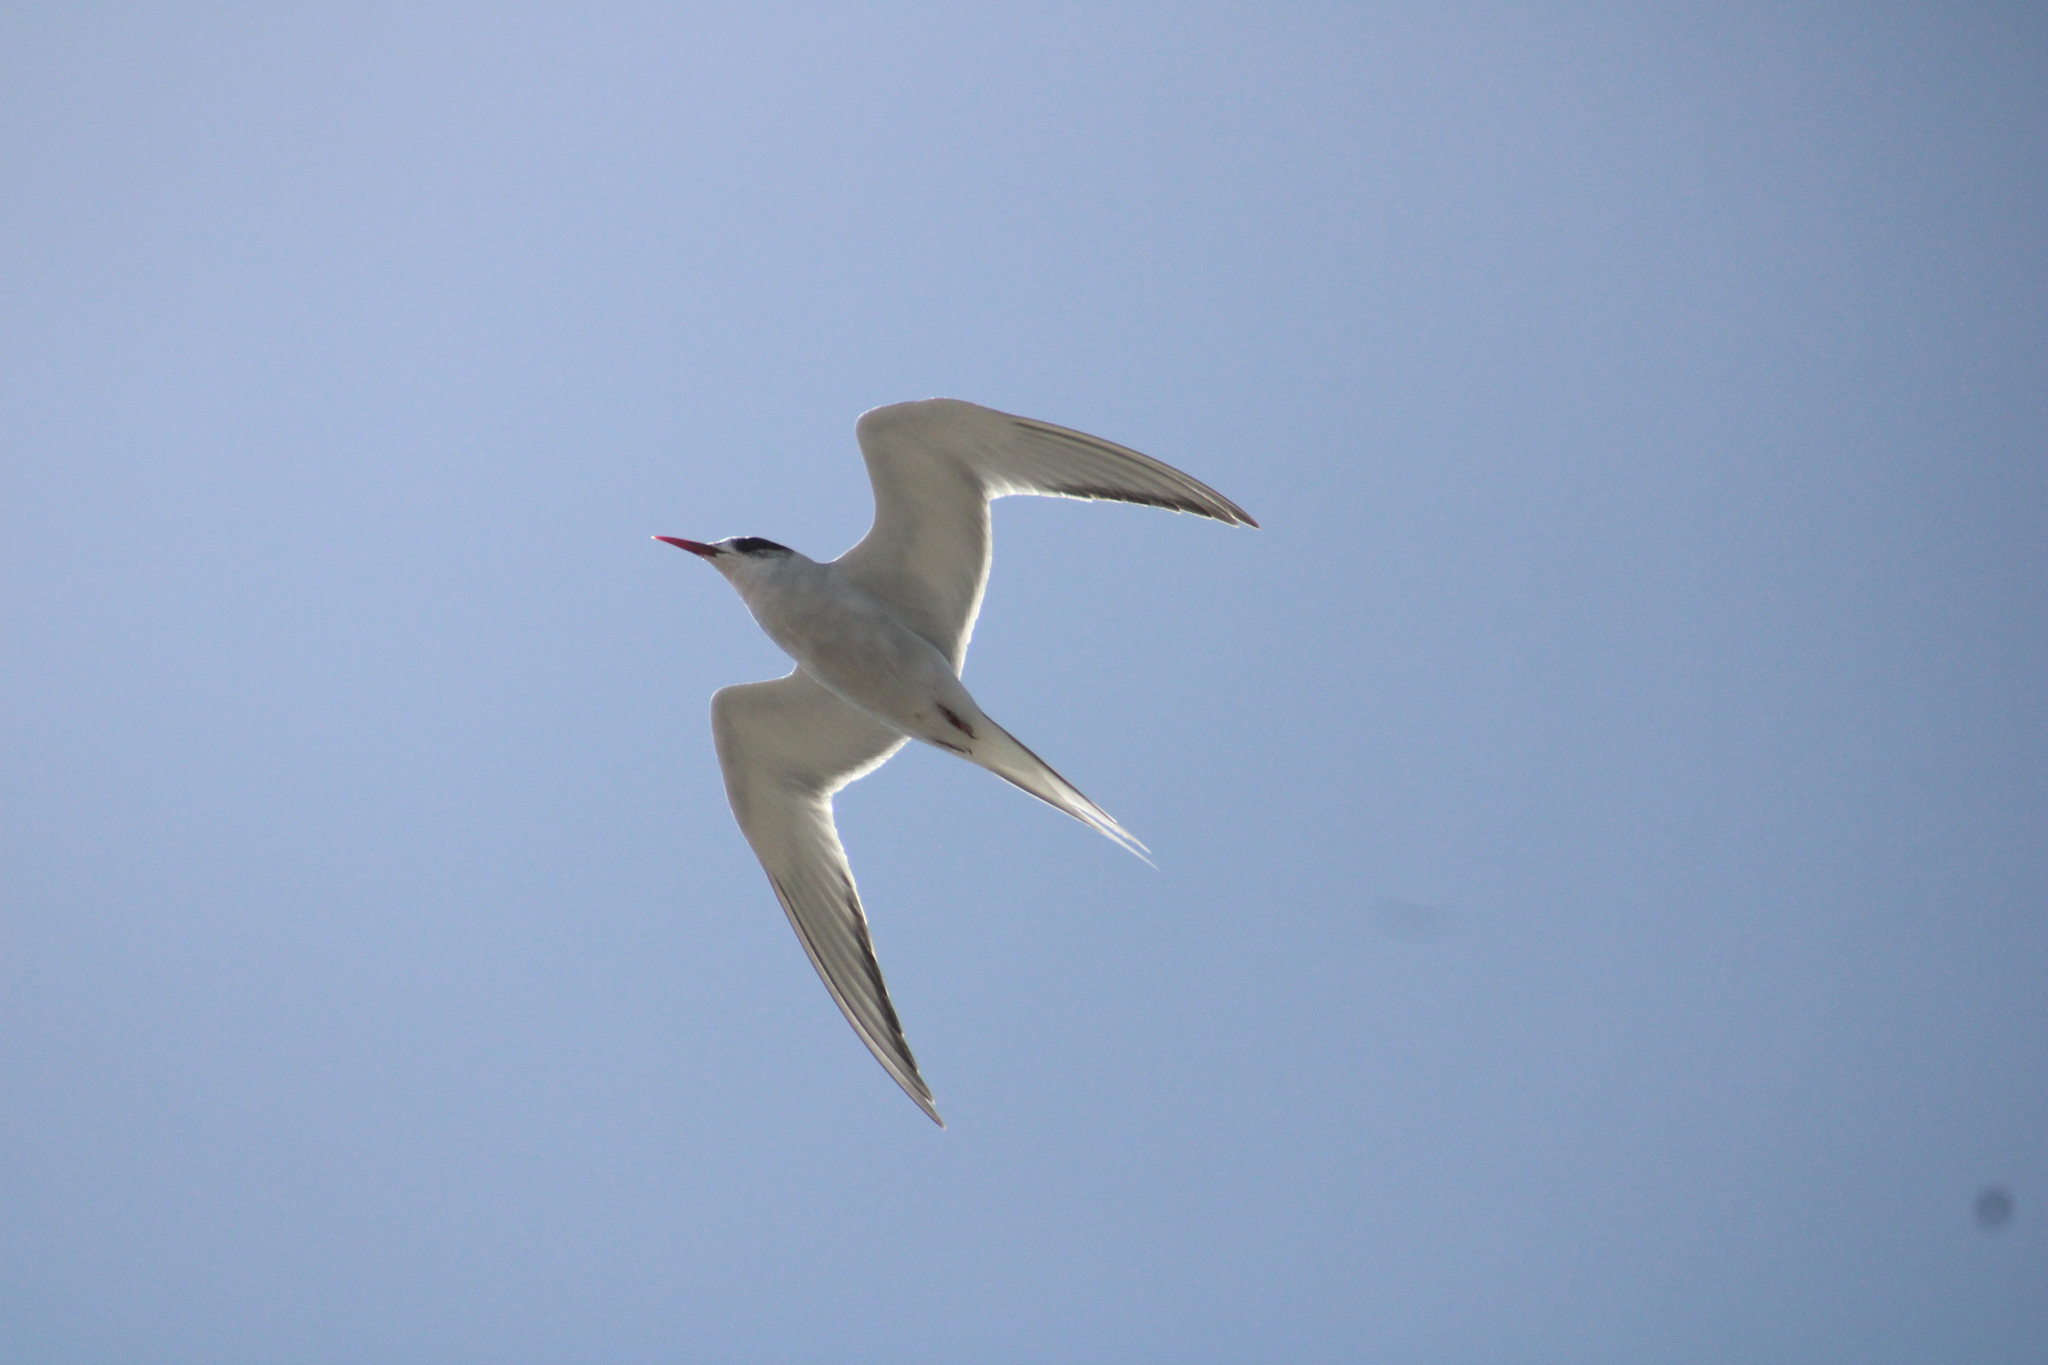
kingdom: Animalia
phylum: Chordata
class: Aves
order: Charadriiformes
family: Laridae
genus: Sterna
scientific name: Sterna hirundinacea
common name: South american tern
